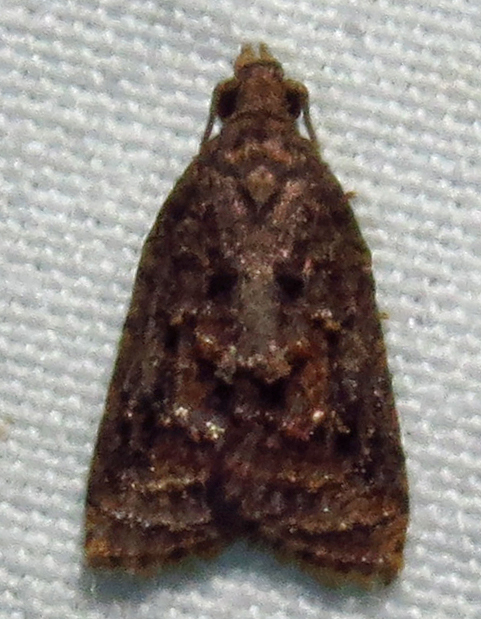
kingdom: Animalia
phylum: Arthropoda
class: Insecta
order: Lepidoptera
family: Tortricidae
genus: Platynota
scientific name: Platynota idaeusalis
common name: Tufted apple bud moth
